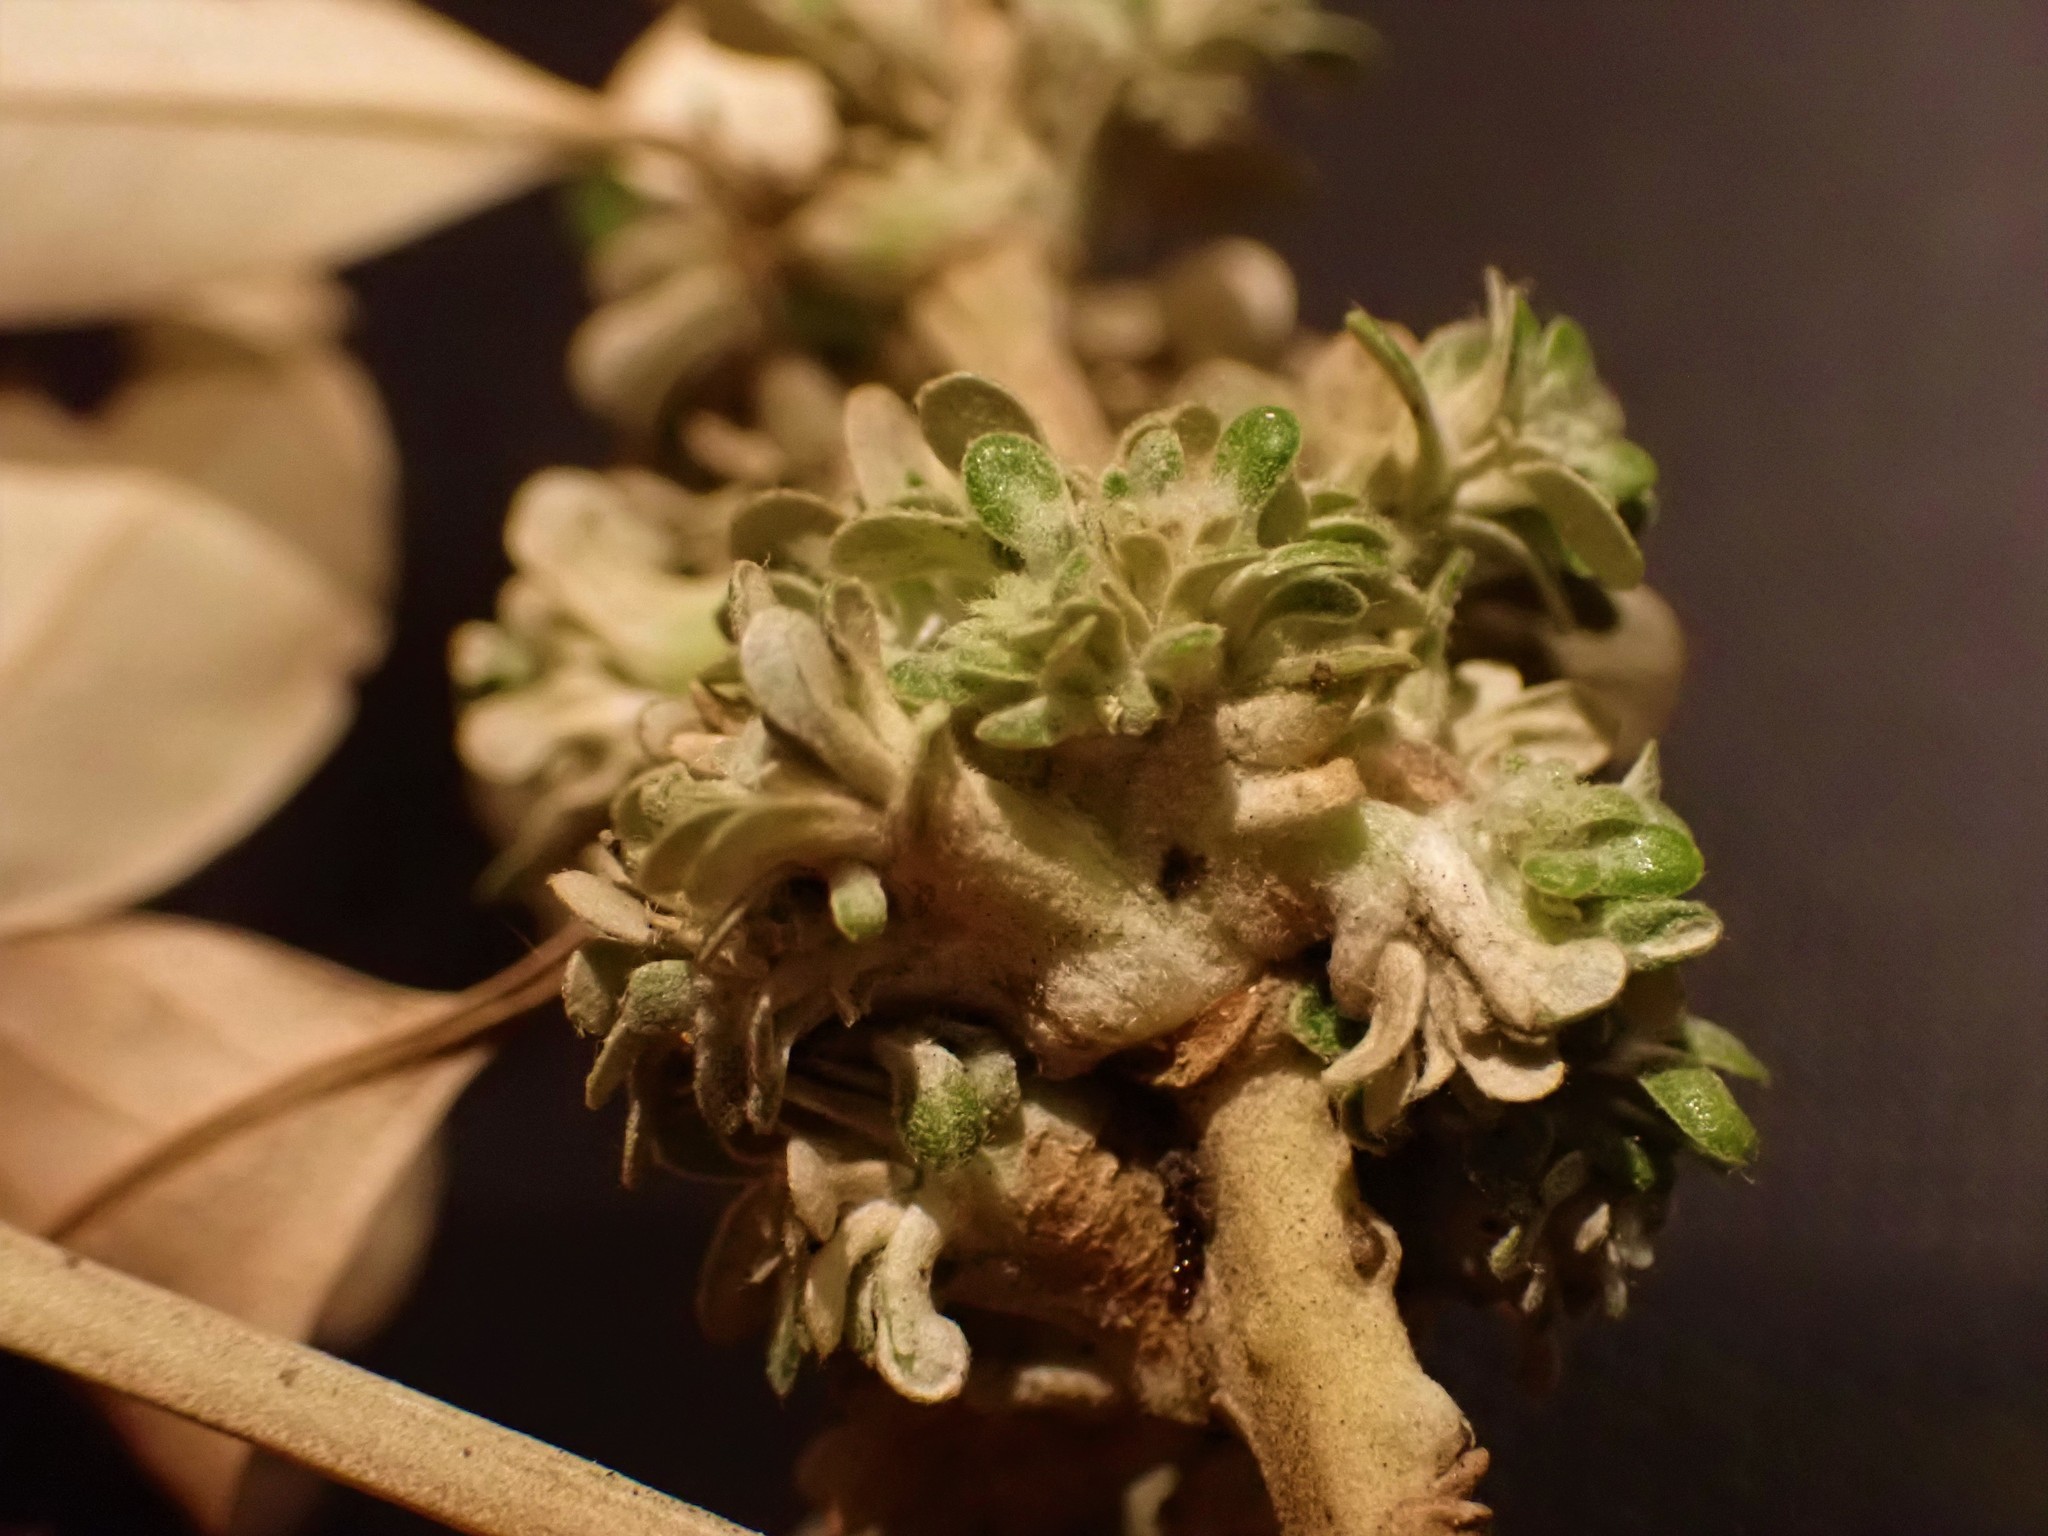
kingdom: Animalia
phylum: Arthropoda
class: Insecta
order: Diptera
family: Cecidomyiidae
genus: Oligotrophus
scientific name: Oligotrophus
